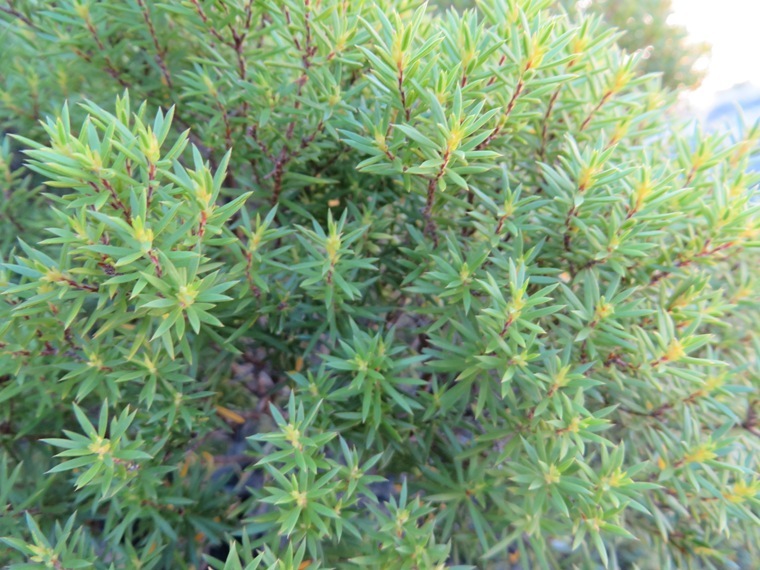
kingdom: Plantae
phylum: Tracheophyta
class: Magnoliopsida
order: Sapindales
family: Rutaceae
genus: Coleonema
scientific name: Coleonema album
